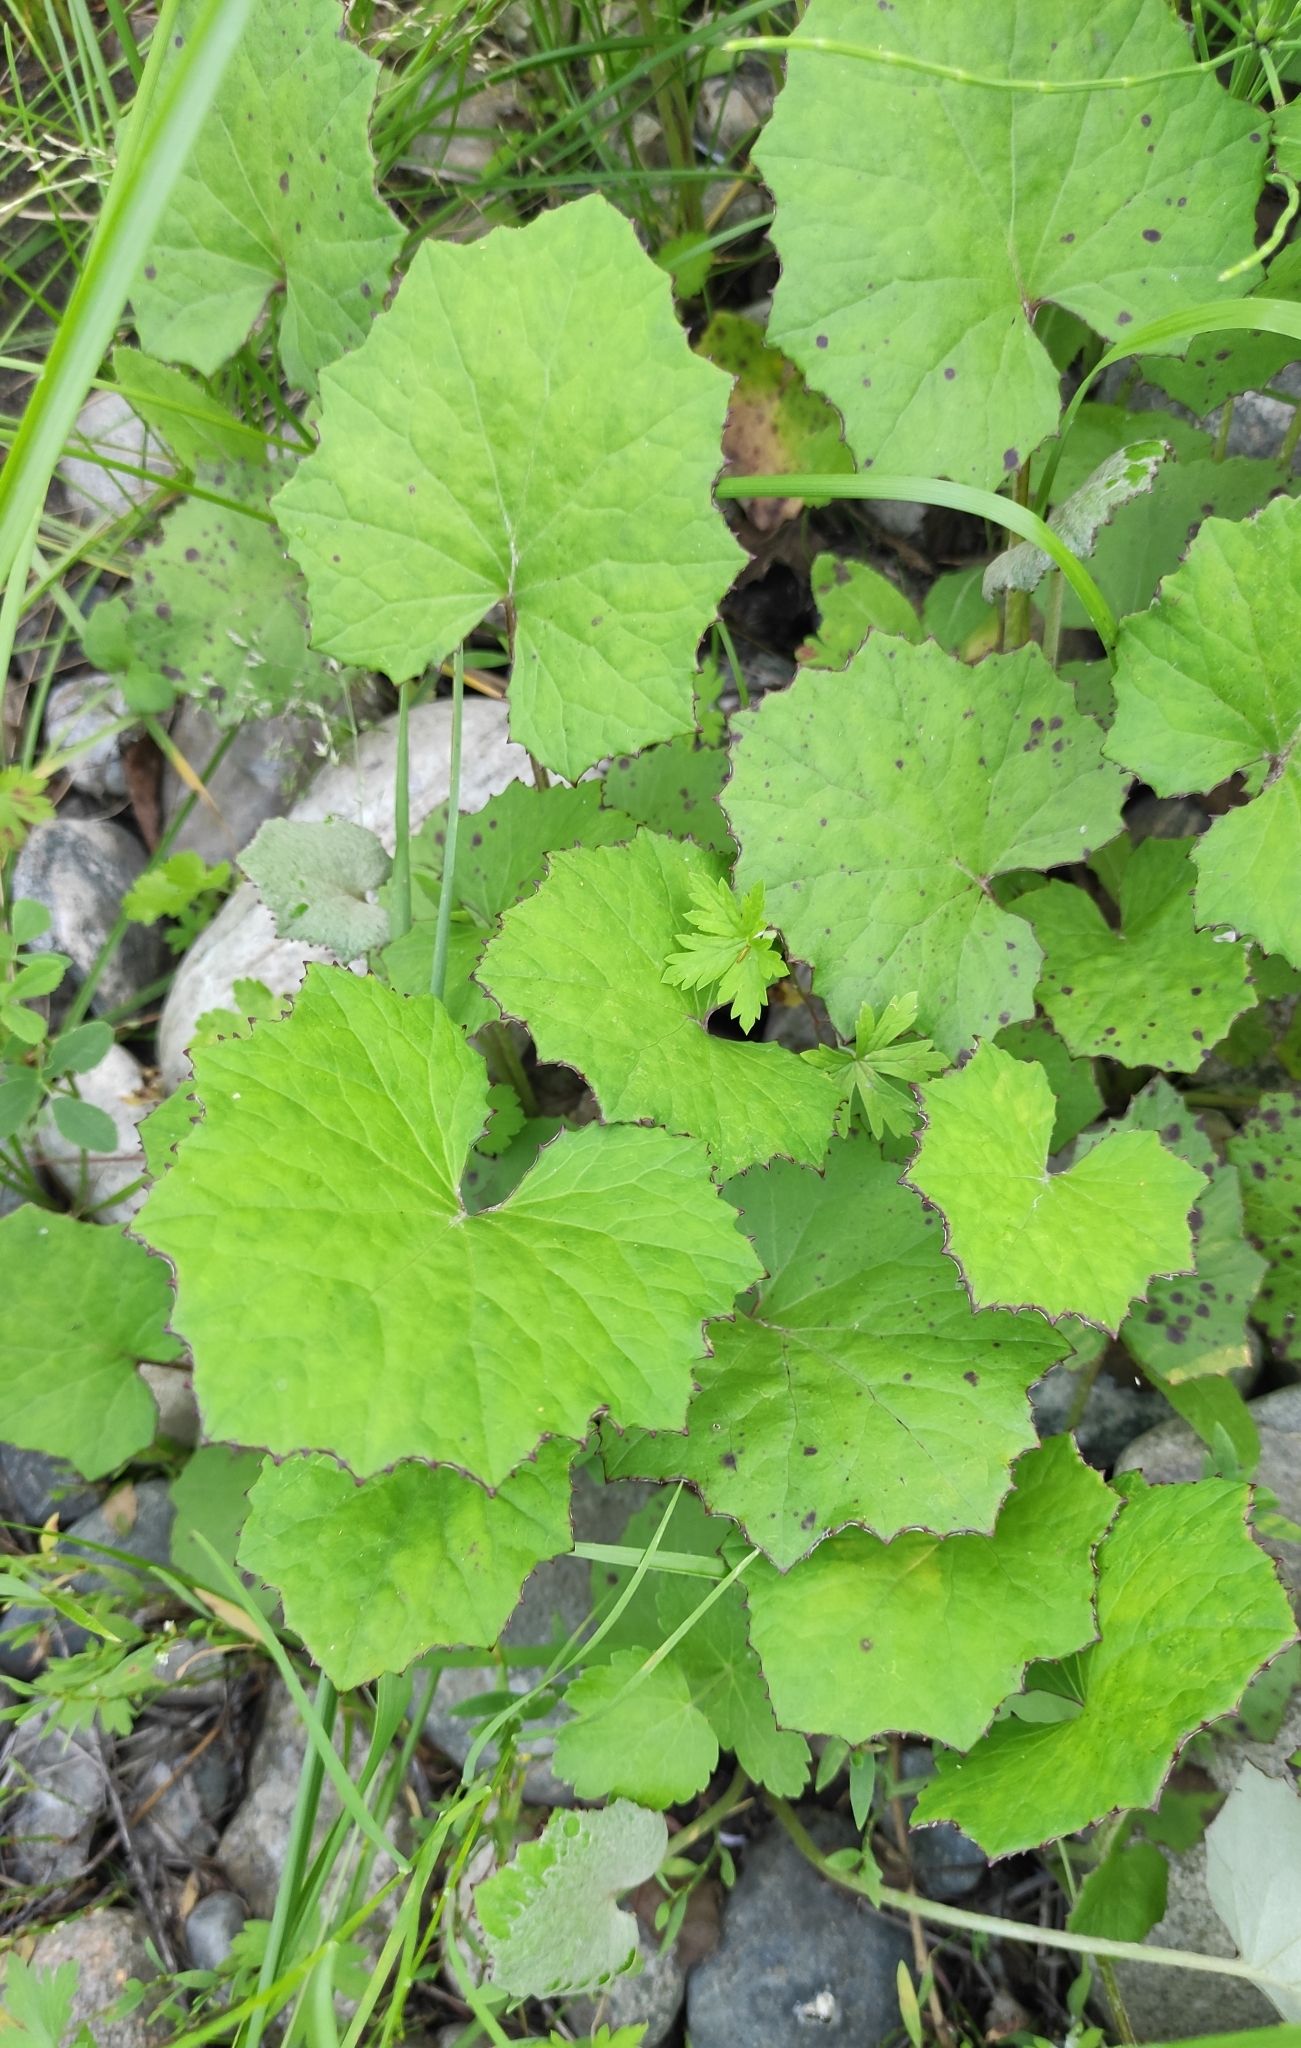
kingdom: Plantae
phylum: Tracheophyta
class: Magnoliopsida
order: Asterales
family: Asteraceae
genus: Tussilago
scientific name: Tussilago farfara
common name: Coltsfoot
